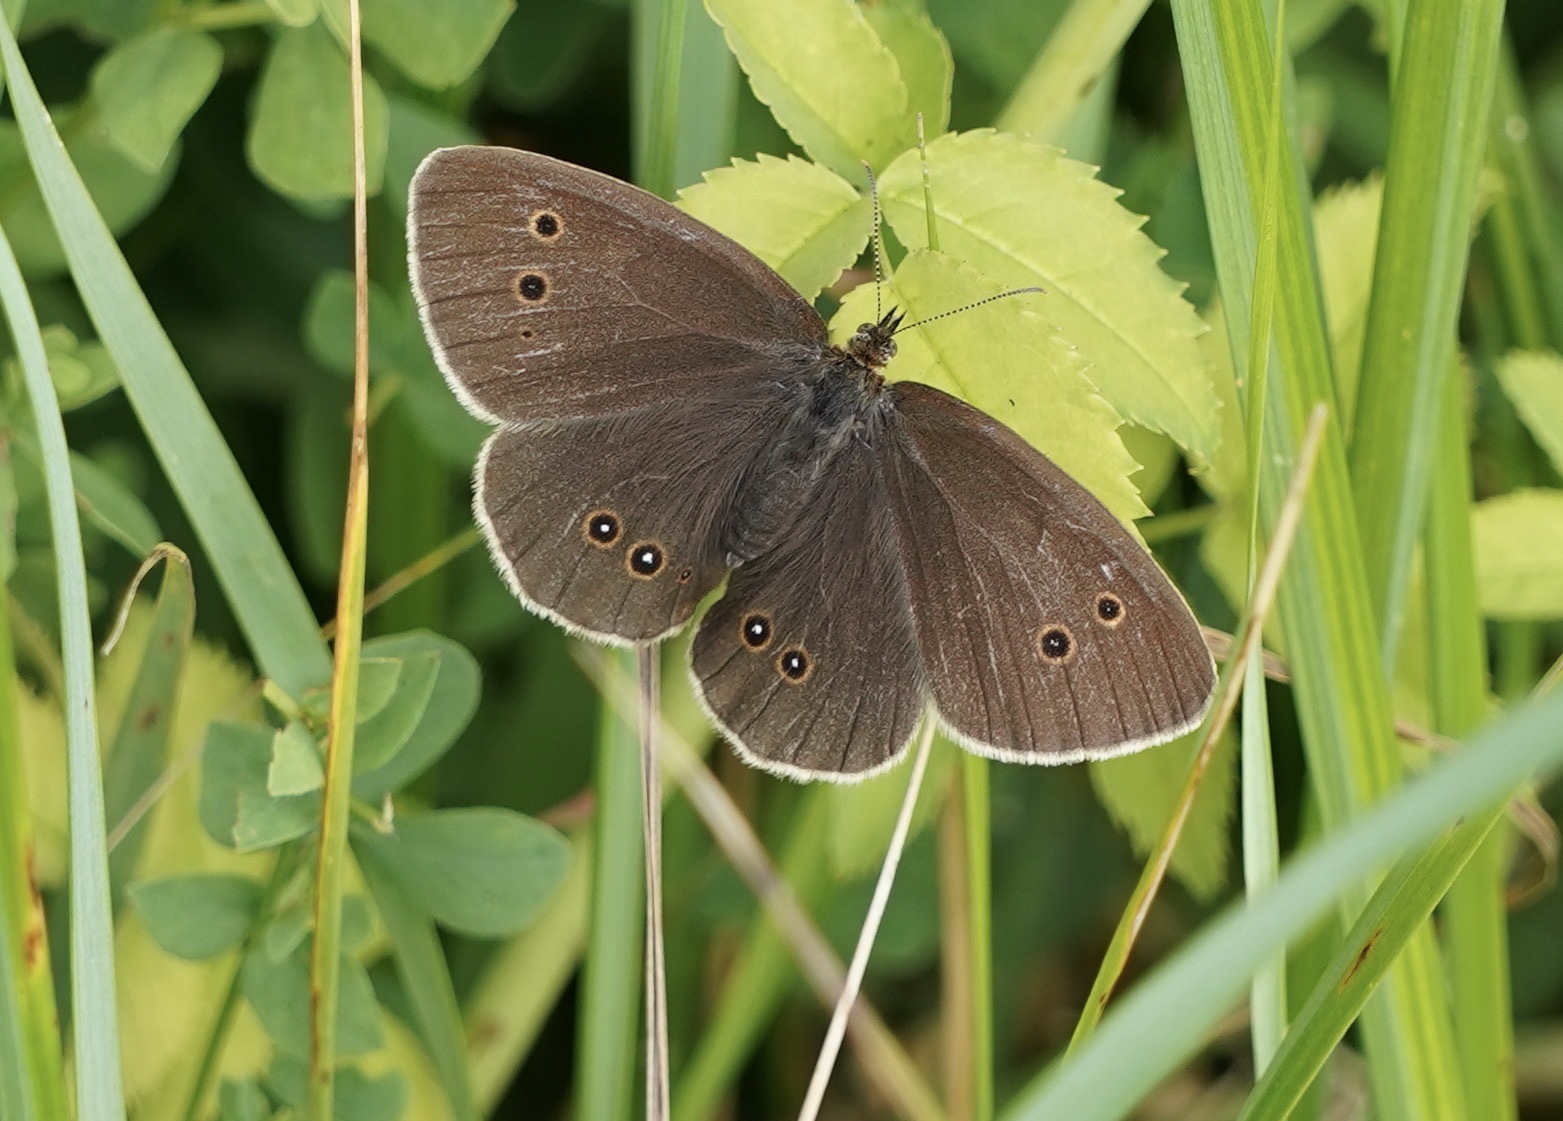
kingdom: Animalia
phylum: Arthropoda
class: Insecta
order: Lepidoptera
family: Nymphalidae
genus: Aphantopus
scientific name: Aphantopus hyperantus
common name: Ringlet
